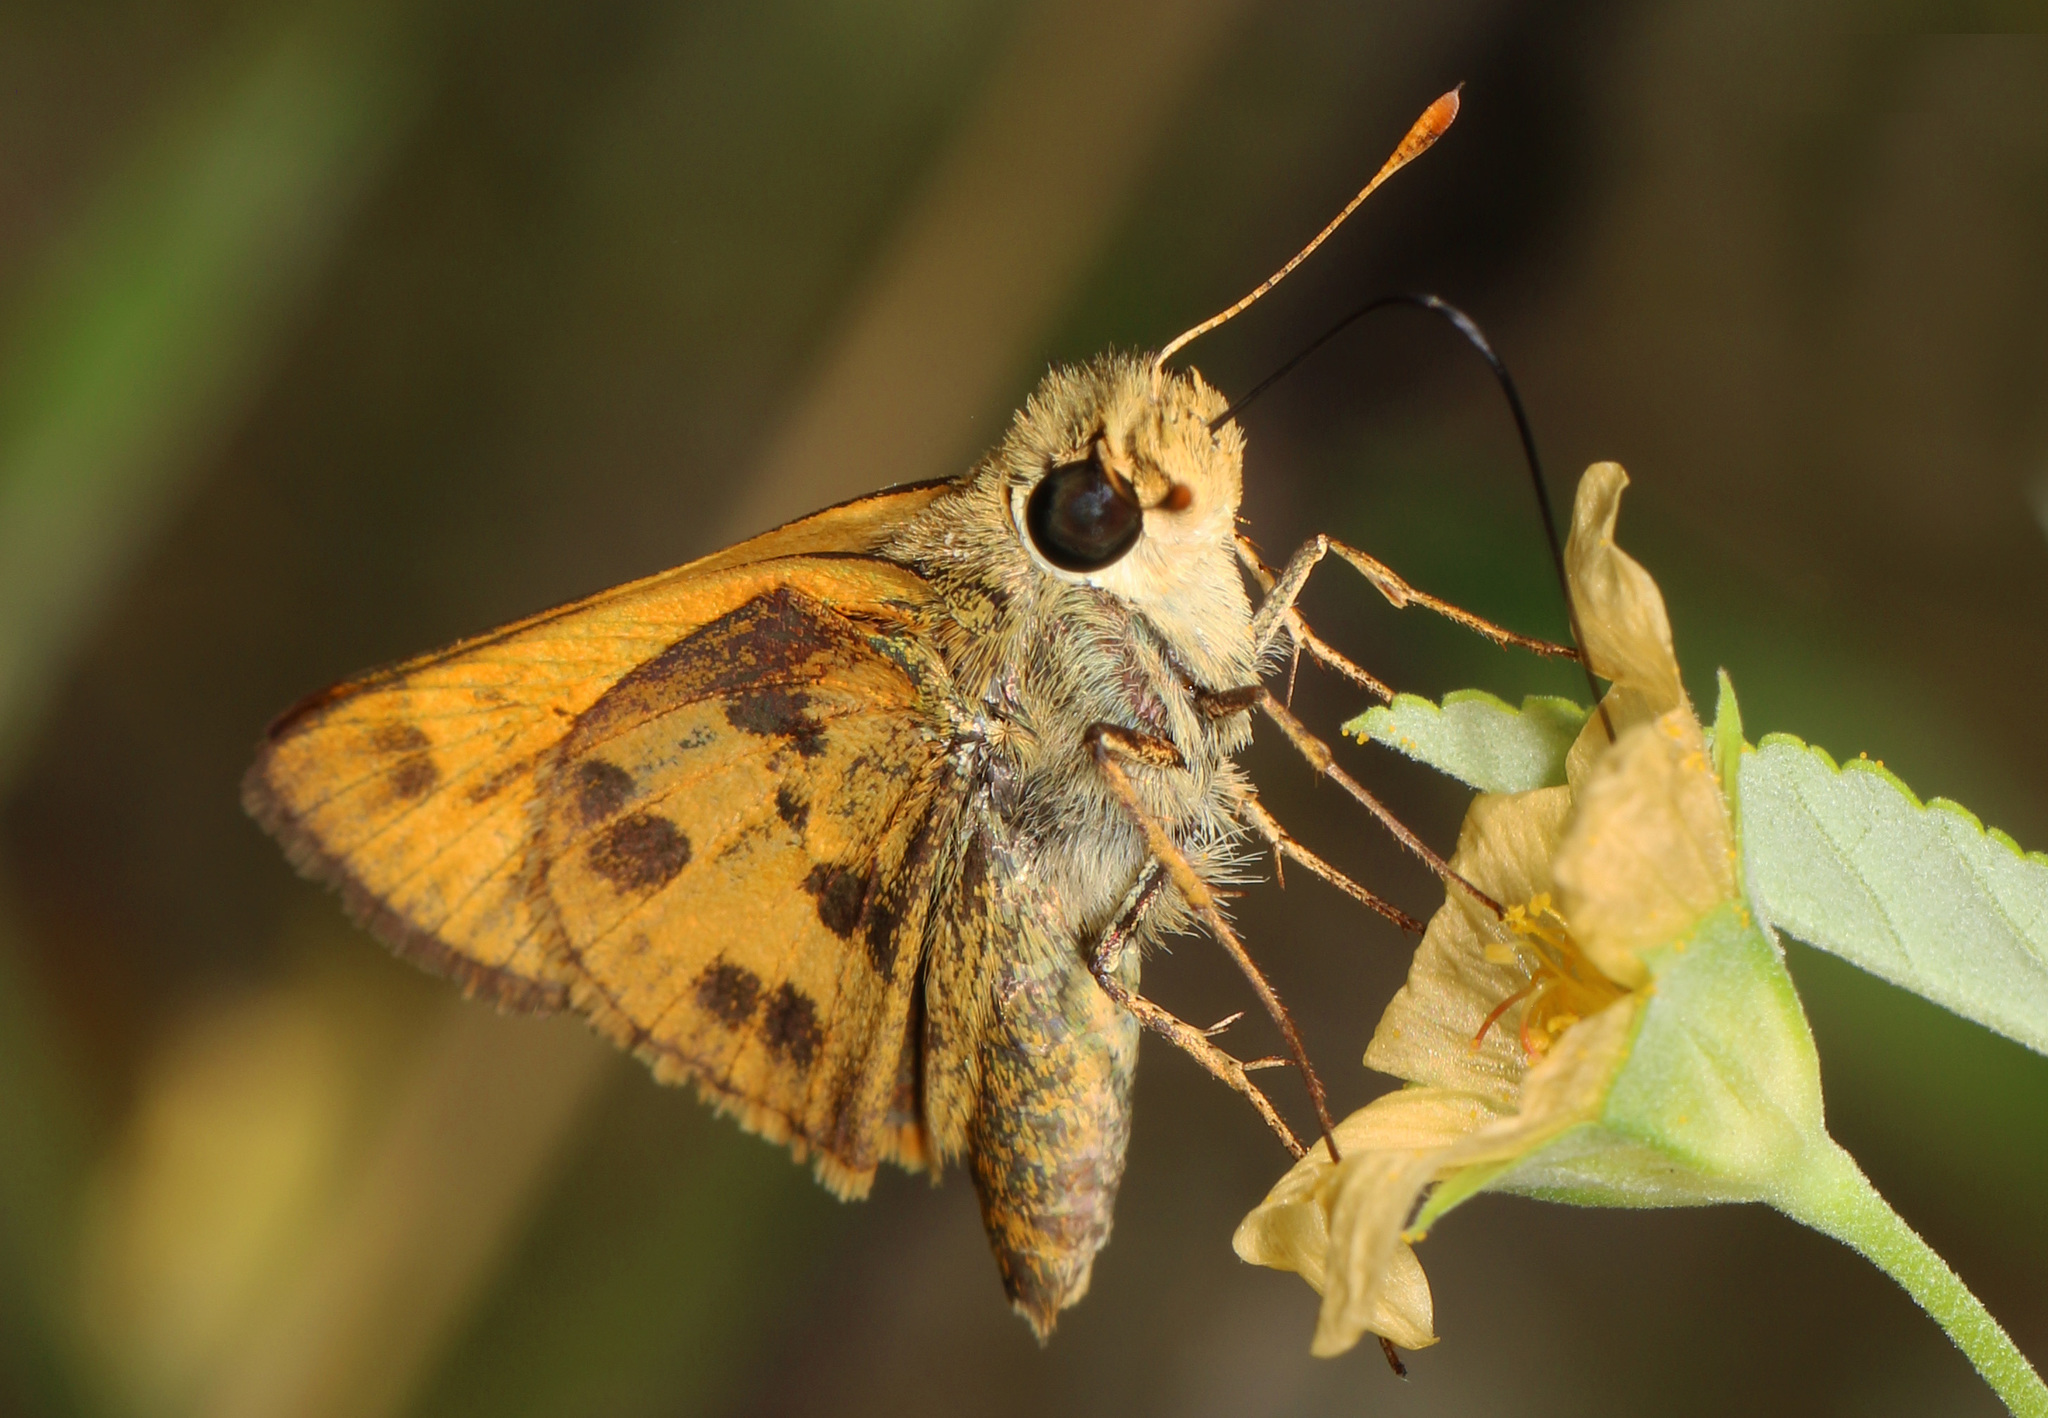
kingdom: Animalia
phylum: Arthropoda
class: Insecta
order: Lepidoptera
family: Hesperiidae
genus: Polites
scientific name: Polites vibex
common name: Whirlabout
